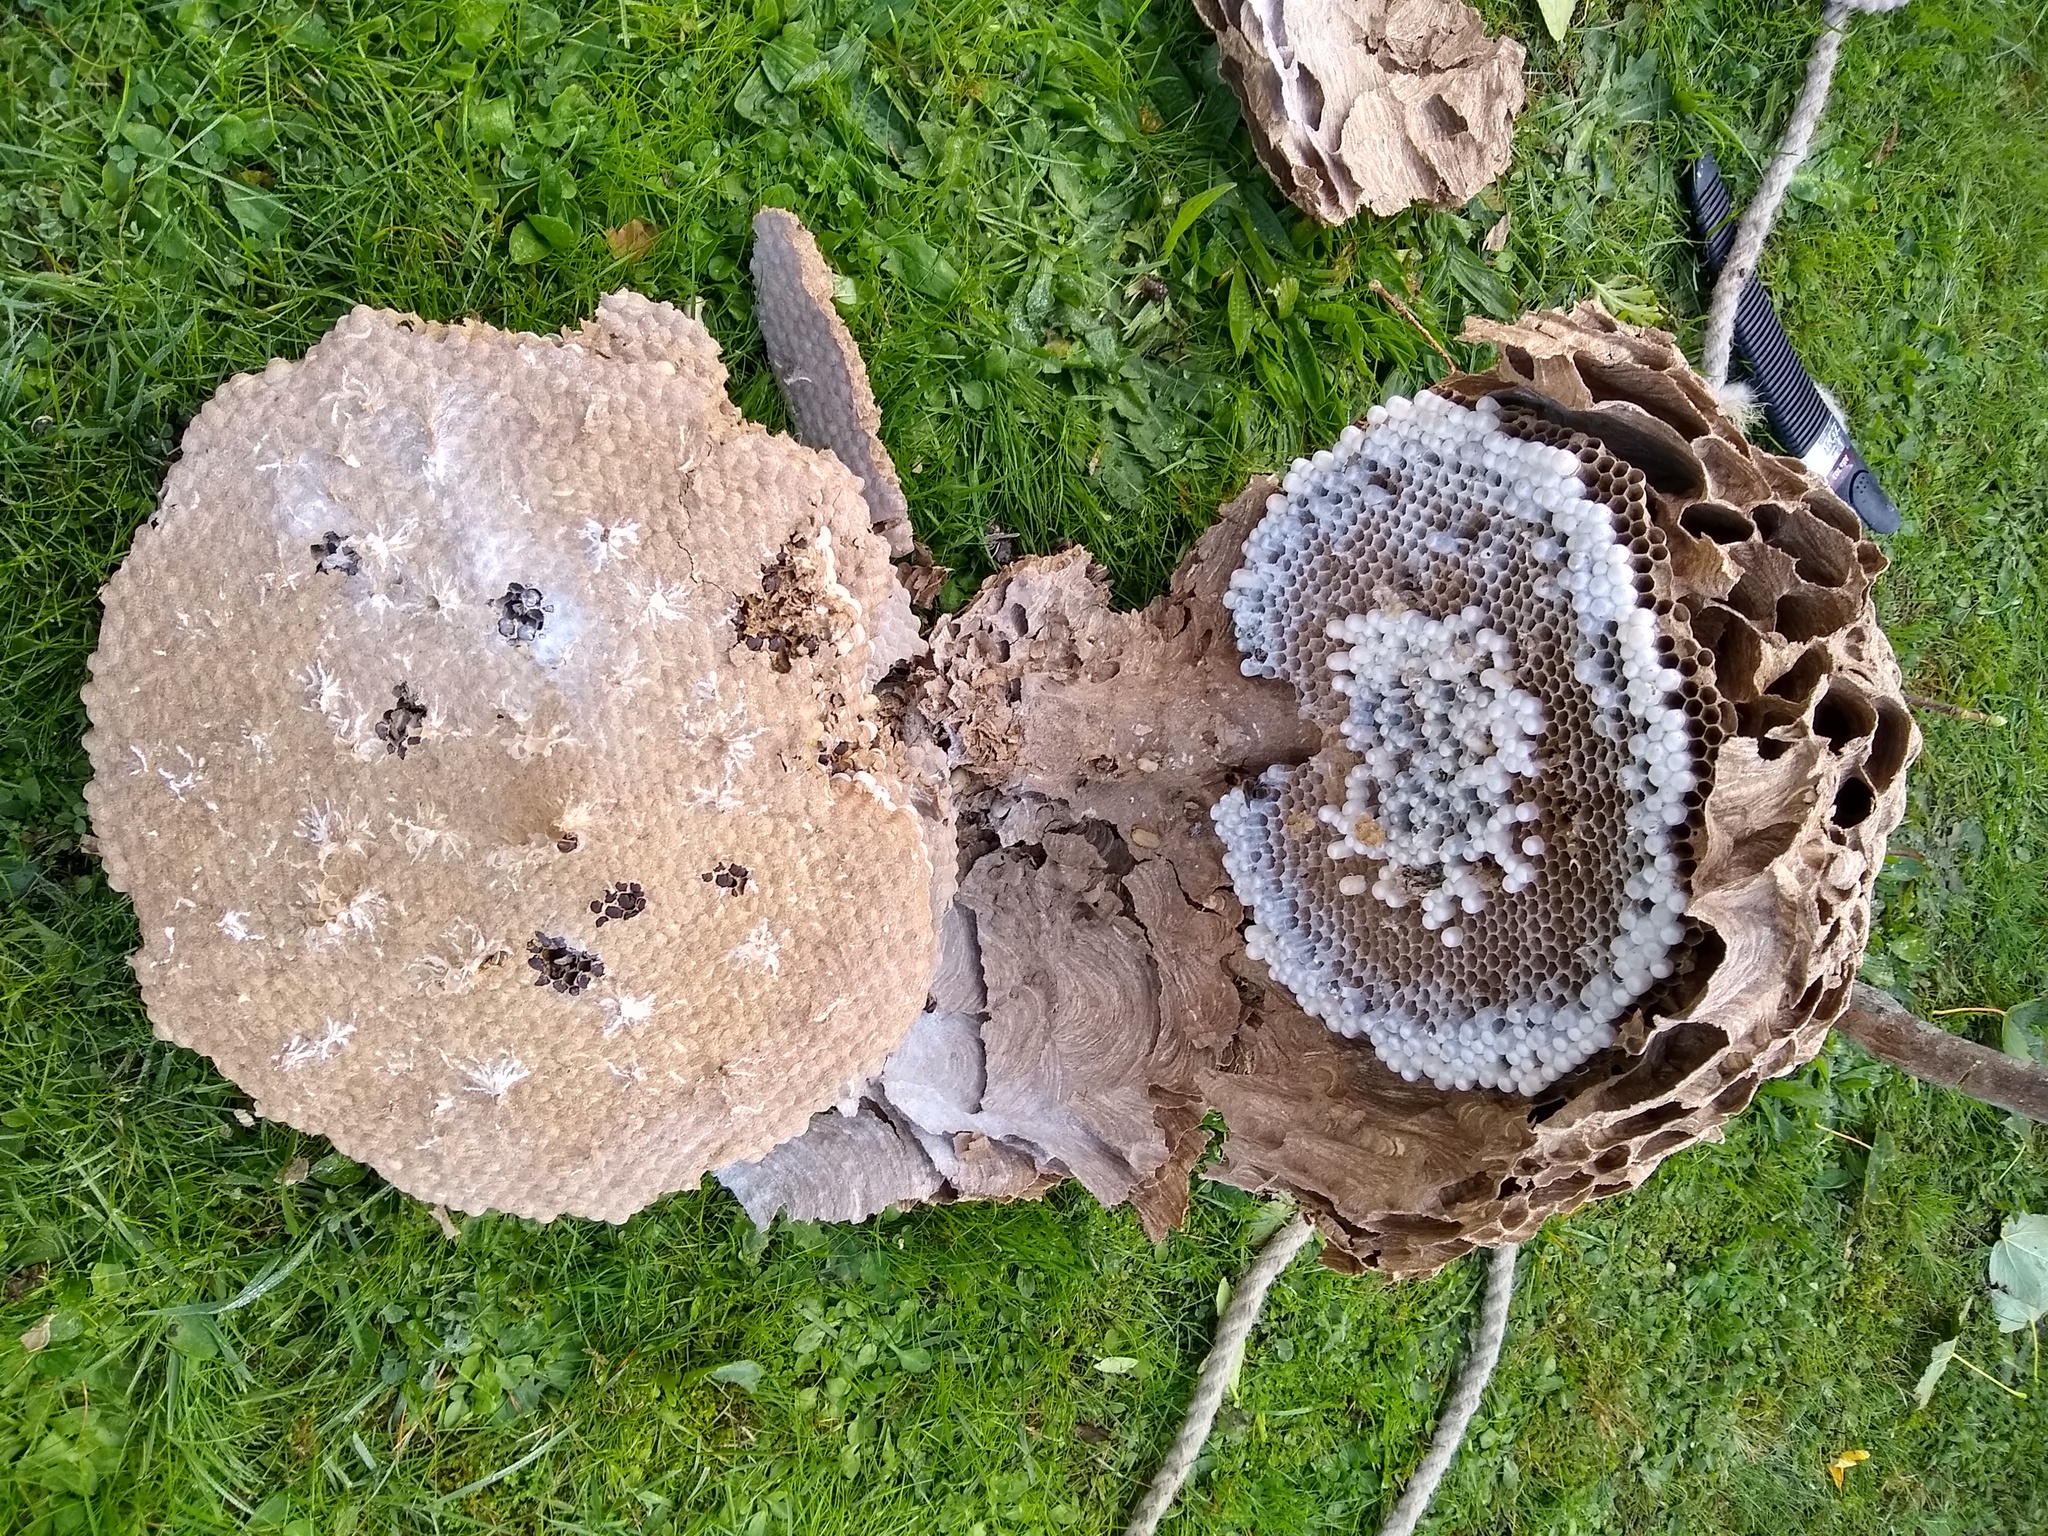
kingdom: Animalia
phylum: Arthropoda
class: Insecta
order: Hymenoptera
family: Vespidae
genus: Vespa
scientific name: Vespa velutina
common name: Asian hornet
